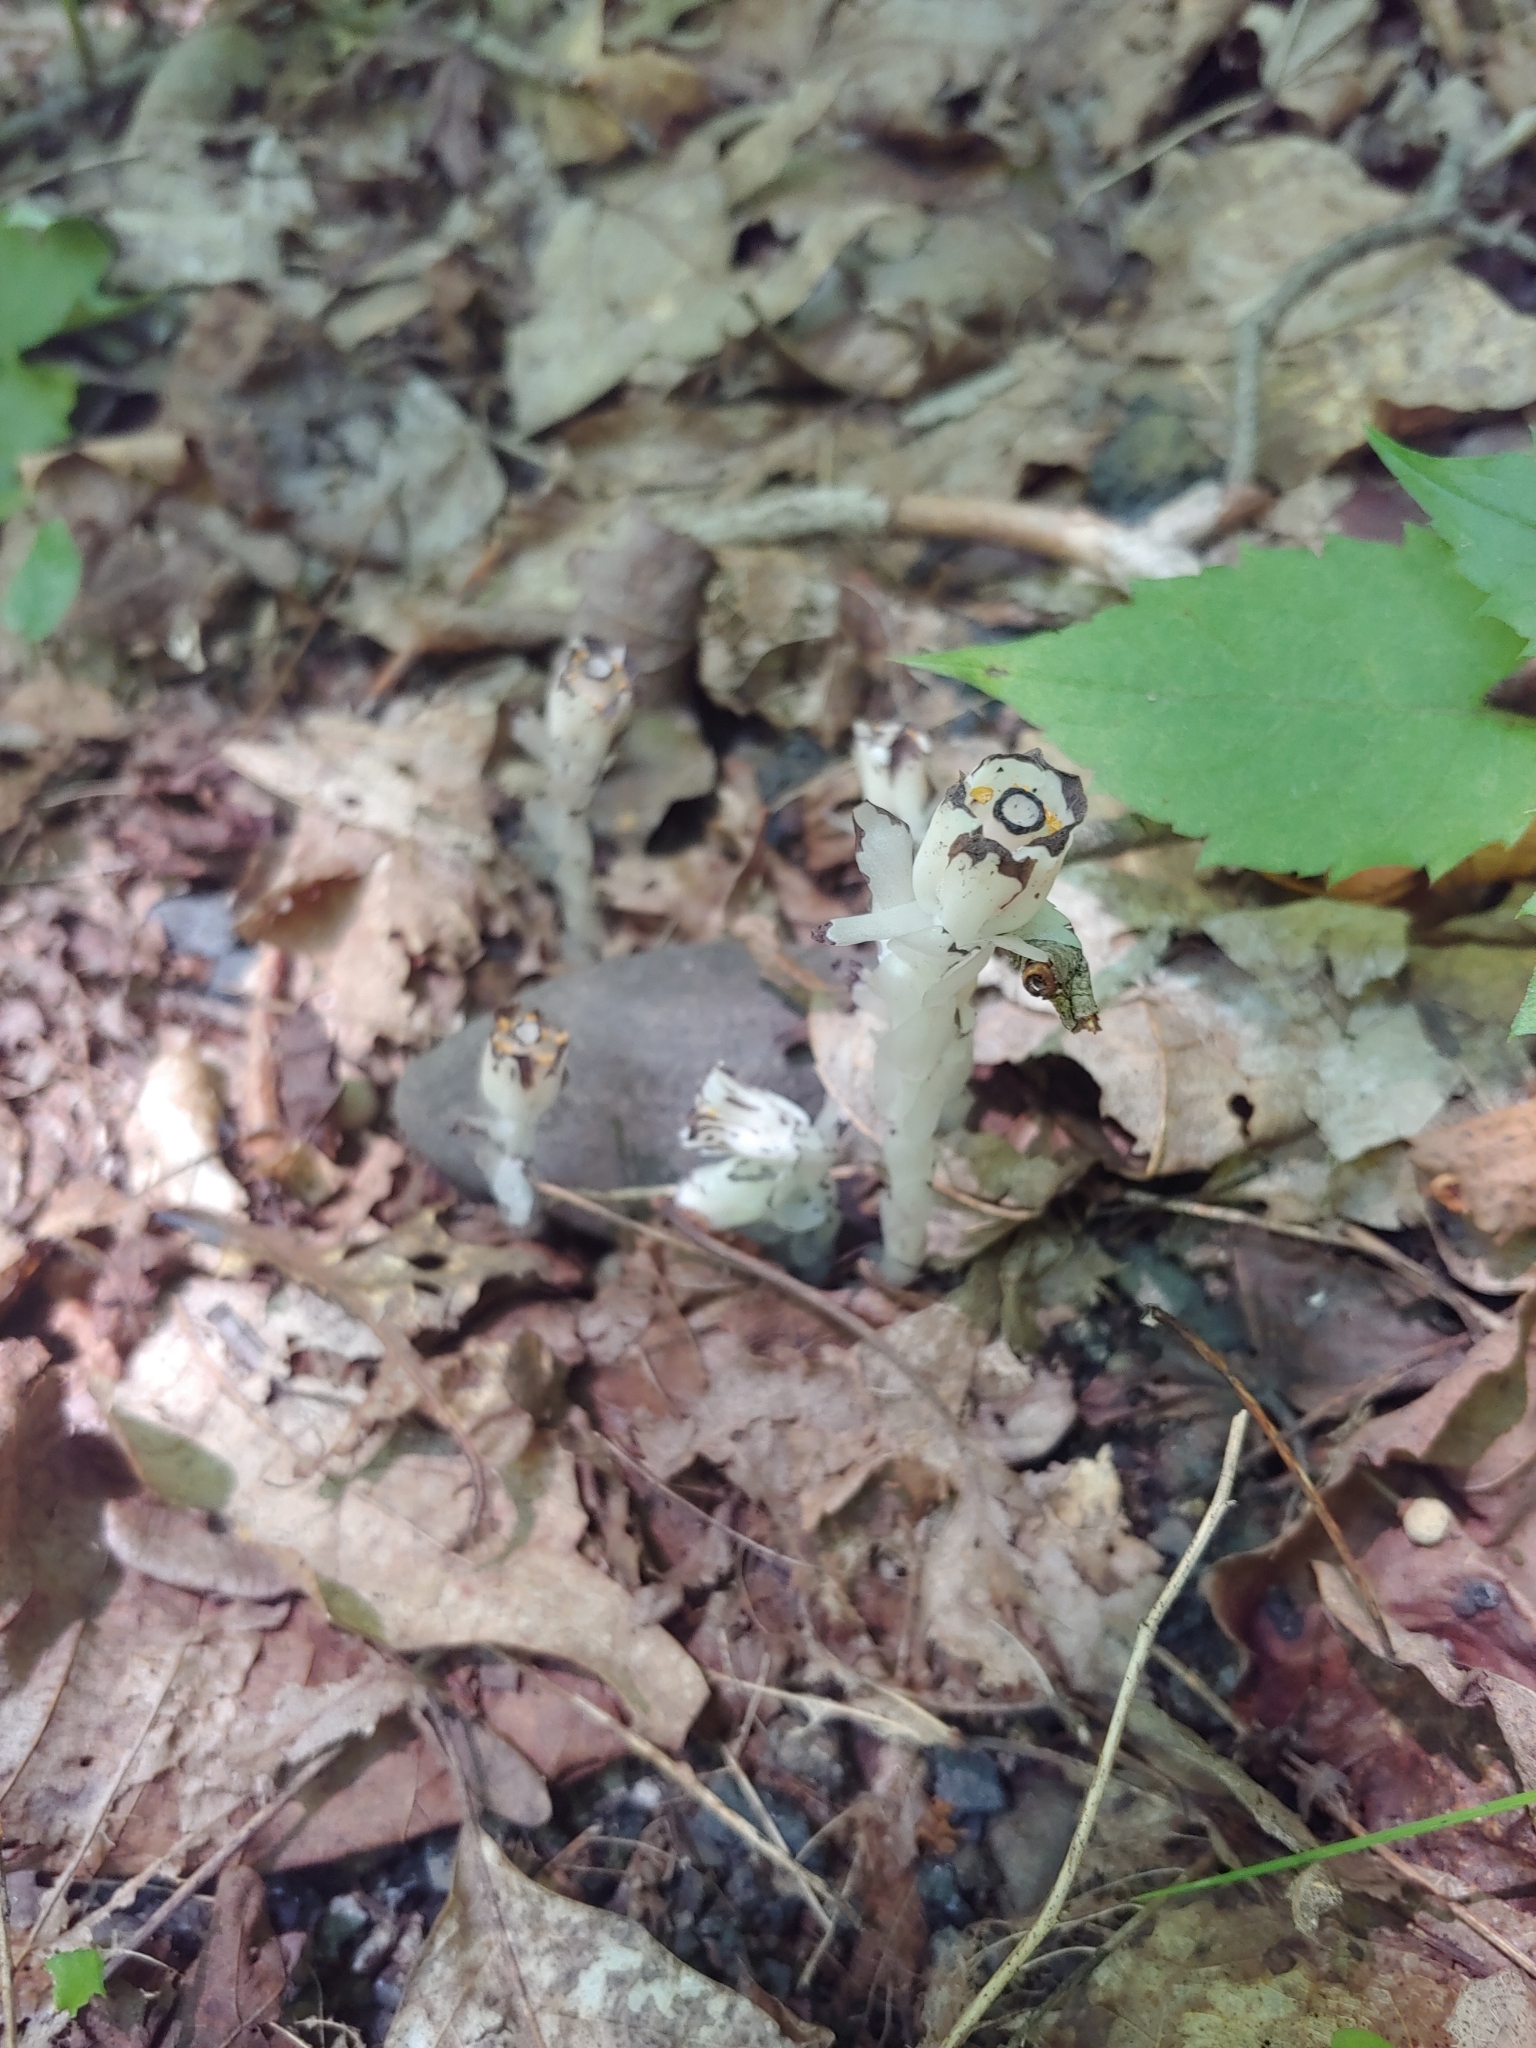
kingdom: Plantae
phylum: Tracheophyta
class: Magnoliopsida
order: Ericales
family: Ericaceae
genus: Monotropa
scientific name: Monotropa uniflora
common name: Convulsion root
